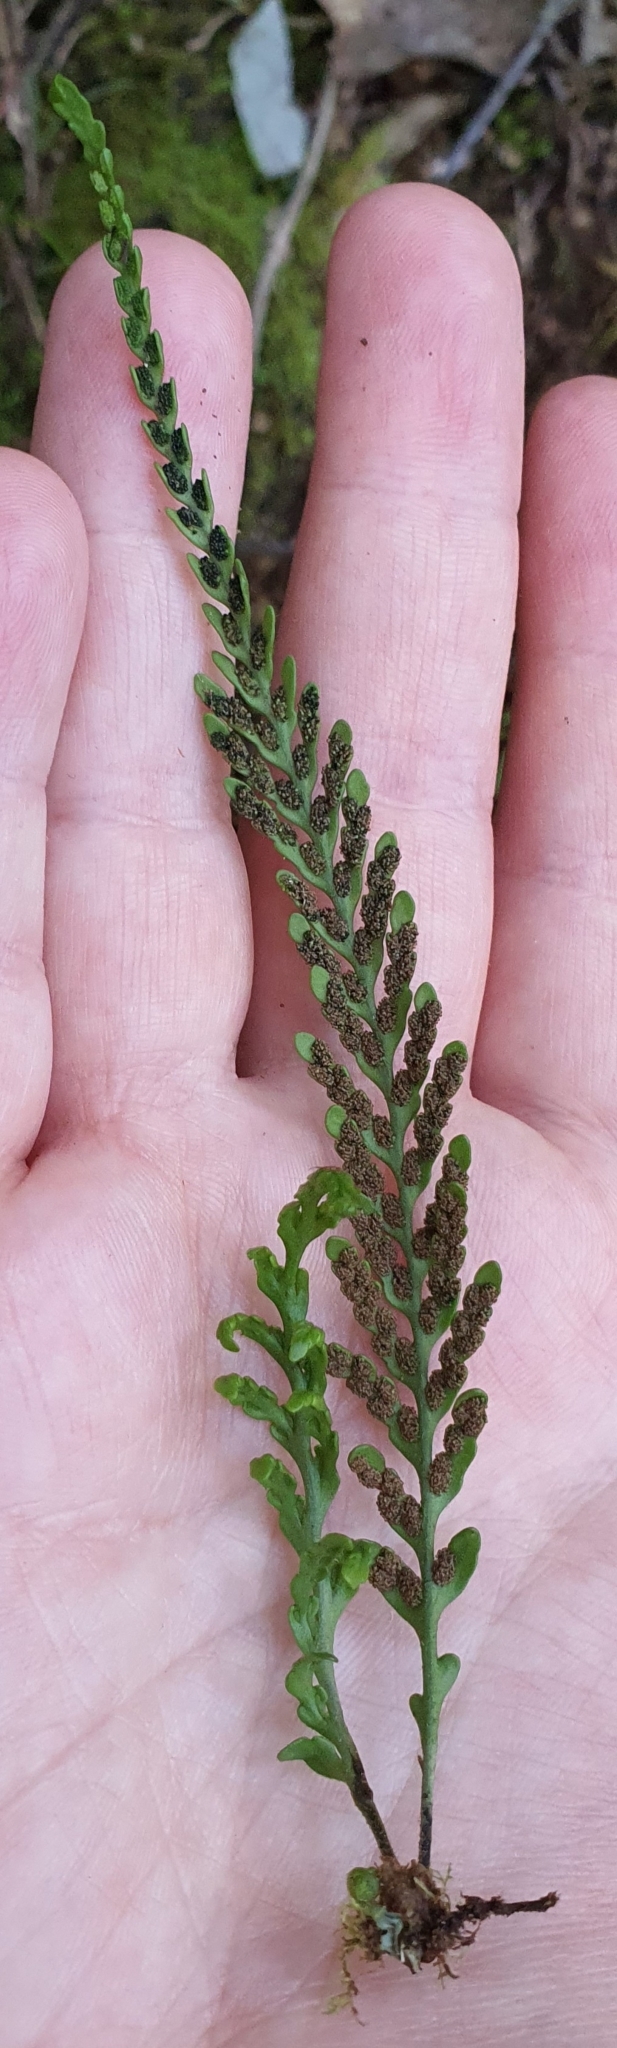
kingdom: Plantae
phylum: Tracheophyta
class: Polypodiopsida
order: Polypodiales
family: Polypodiaceae
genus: Notogrammitis
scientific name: Notogrammitis heterophylla
